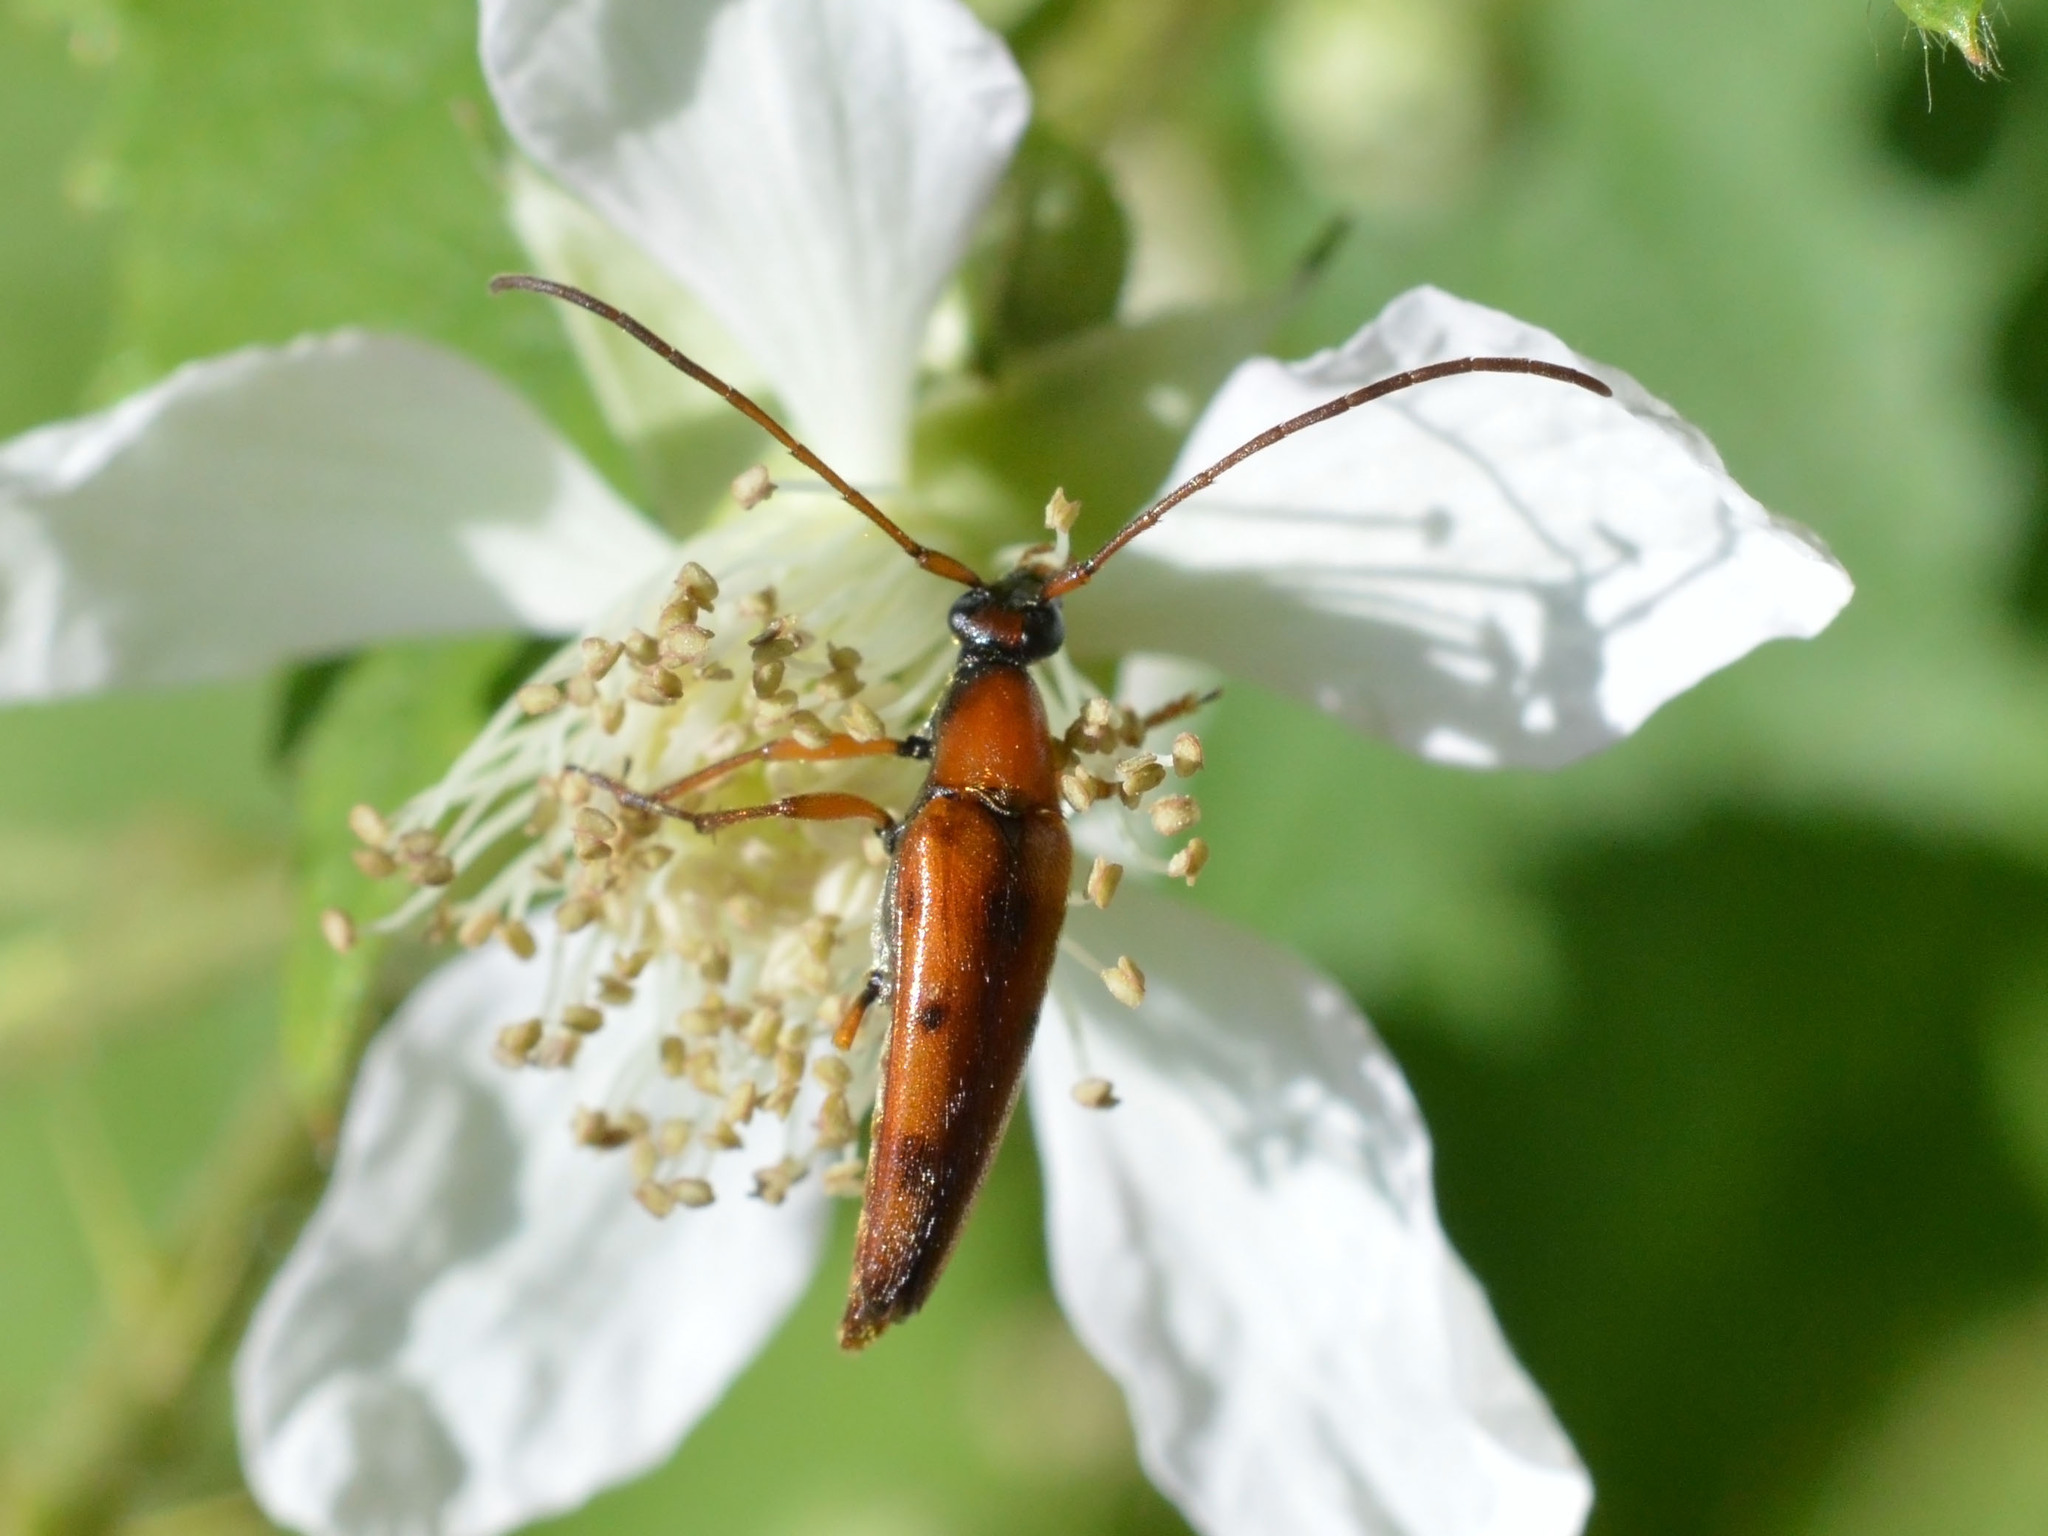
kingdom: Animalia
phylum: Arthropoda
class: Insecta
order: Coleoptera
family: Cerambycidae
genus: Stenurella
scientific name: Stenurella septempunctata
